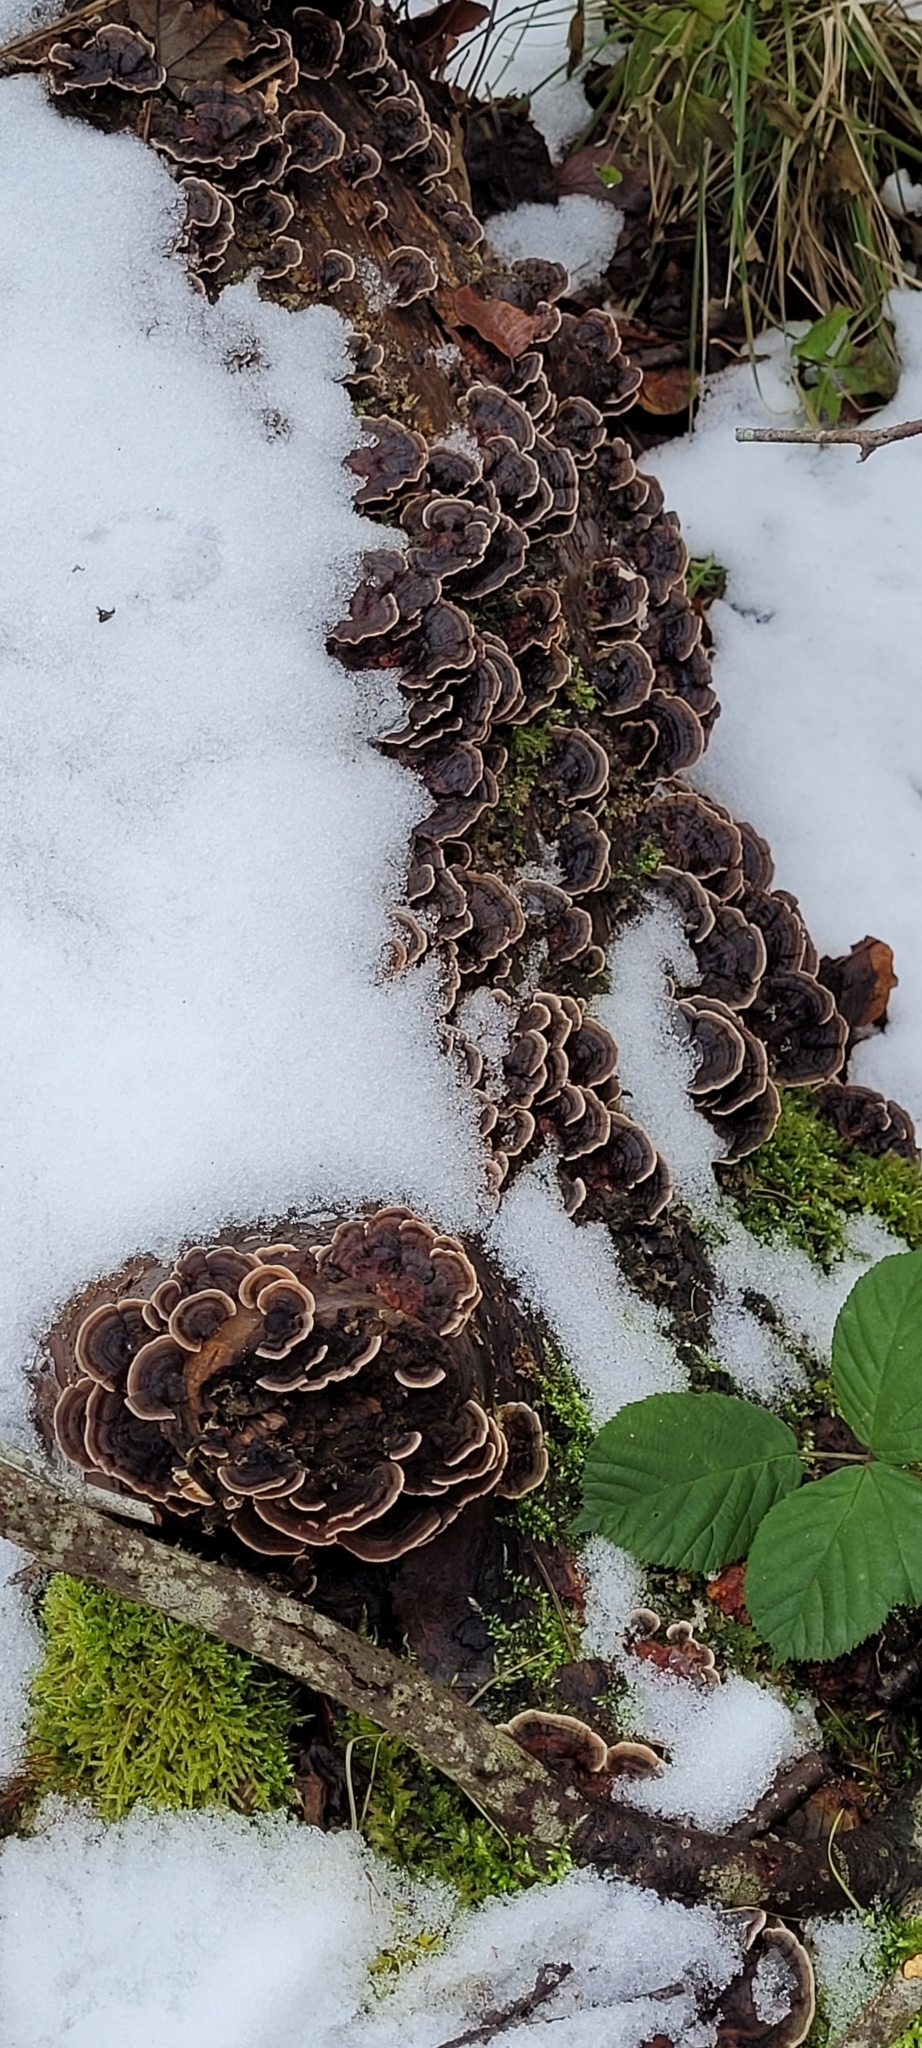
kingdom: Fungi
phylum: Basidiomycota
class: Agaricomycetes
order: Polyporales
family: Polyporaceae
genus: Trametes
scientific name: Trametes versicolor
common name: Turkeytail
